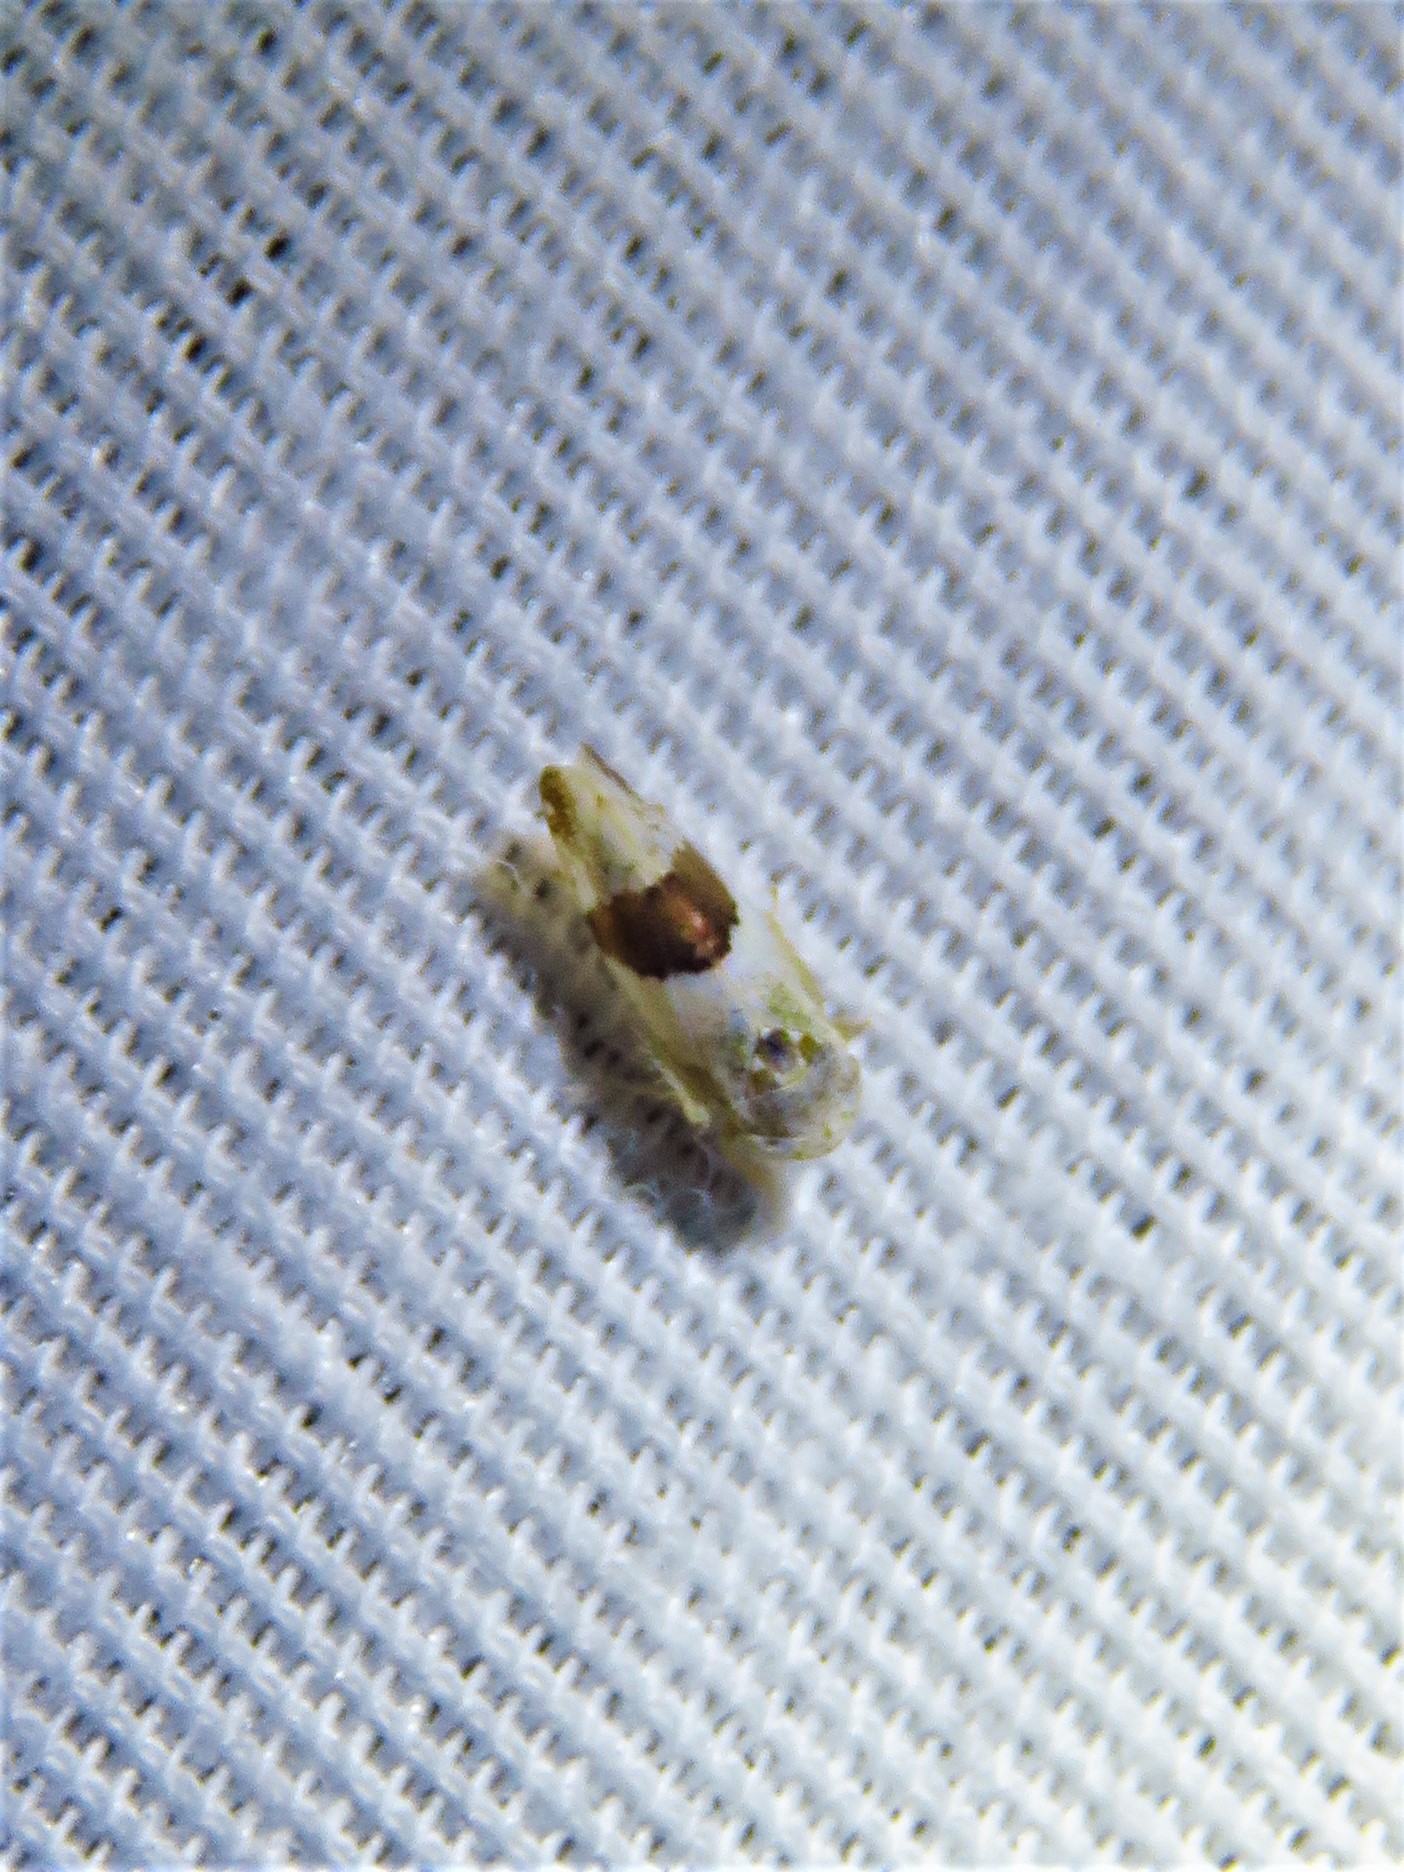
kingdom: Animalia
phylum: Arthropoda
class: Insecta
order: Hemiptera
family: Cicadellidae
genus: Norvellina
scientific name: Norvellina seminuda
